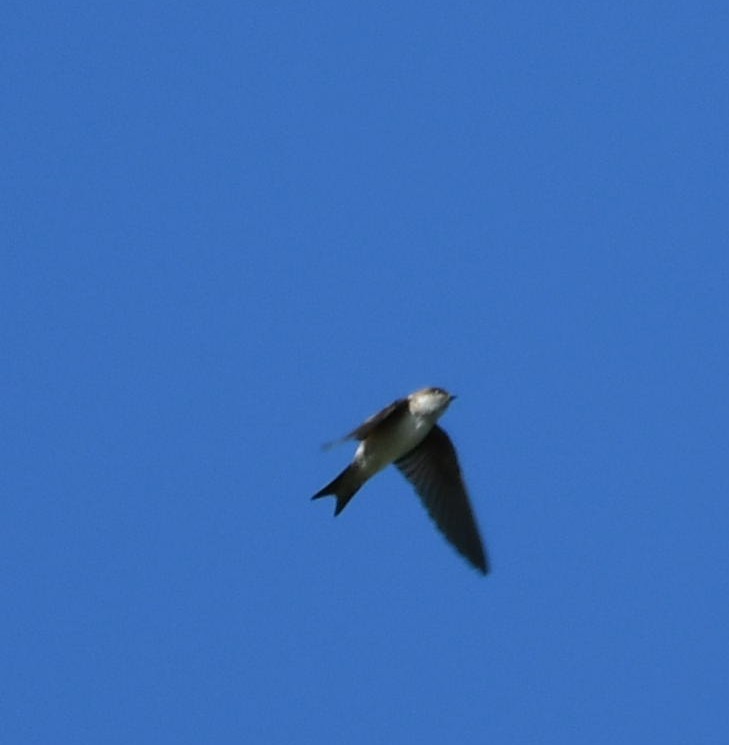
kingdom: Animalia
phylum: Chordata
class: Aves
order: Passeriformes
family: Hirundinidae
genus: Delichon
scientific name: Delichon urbicum
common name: Common house martin
